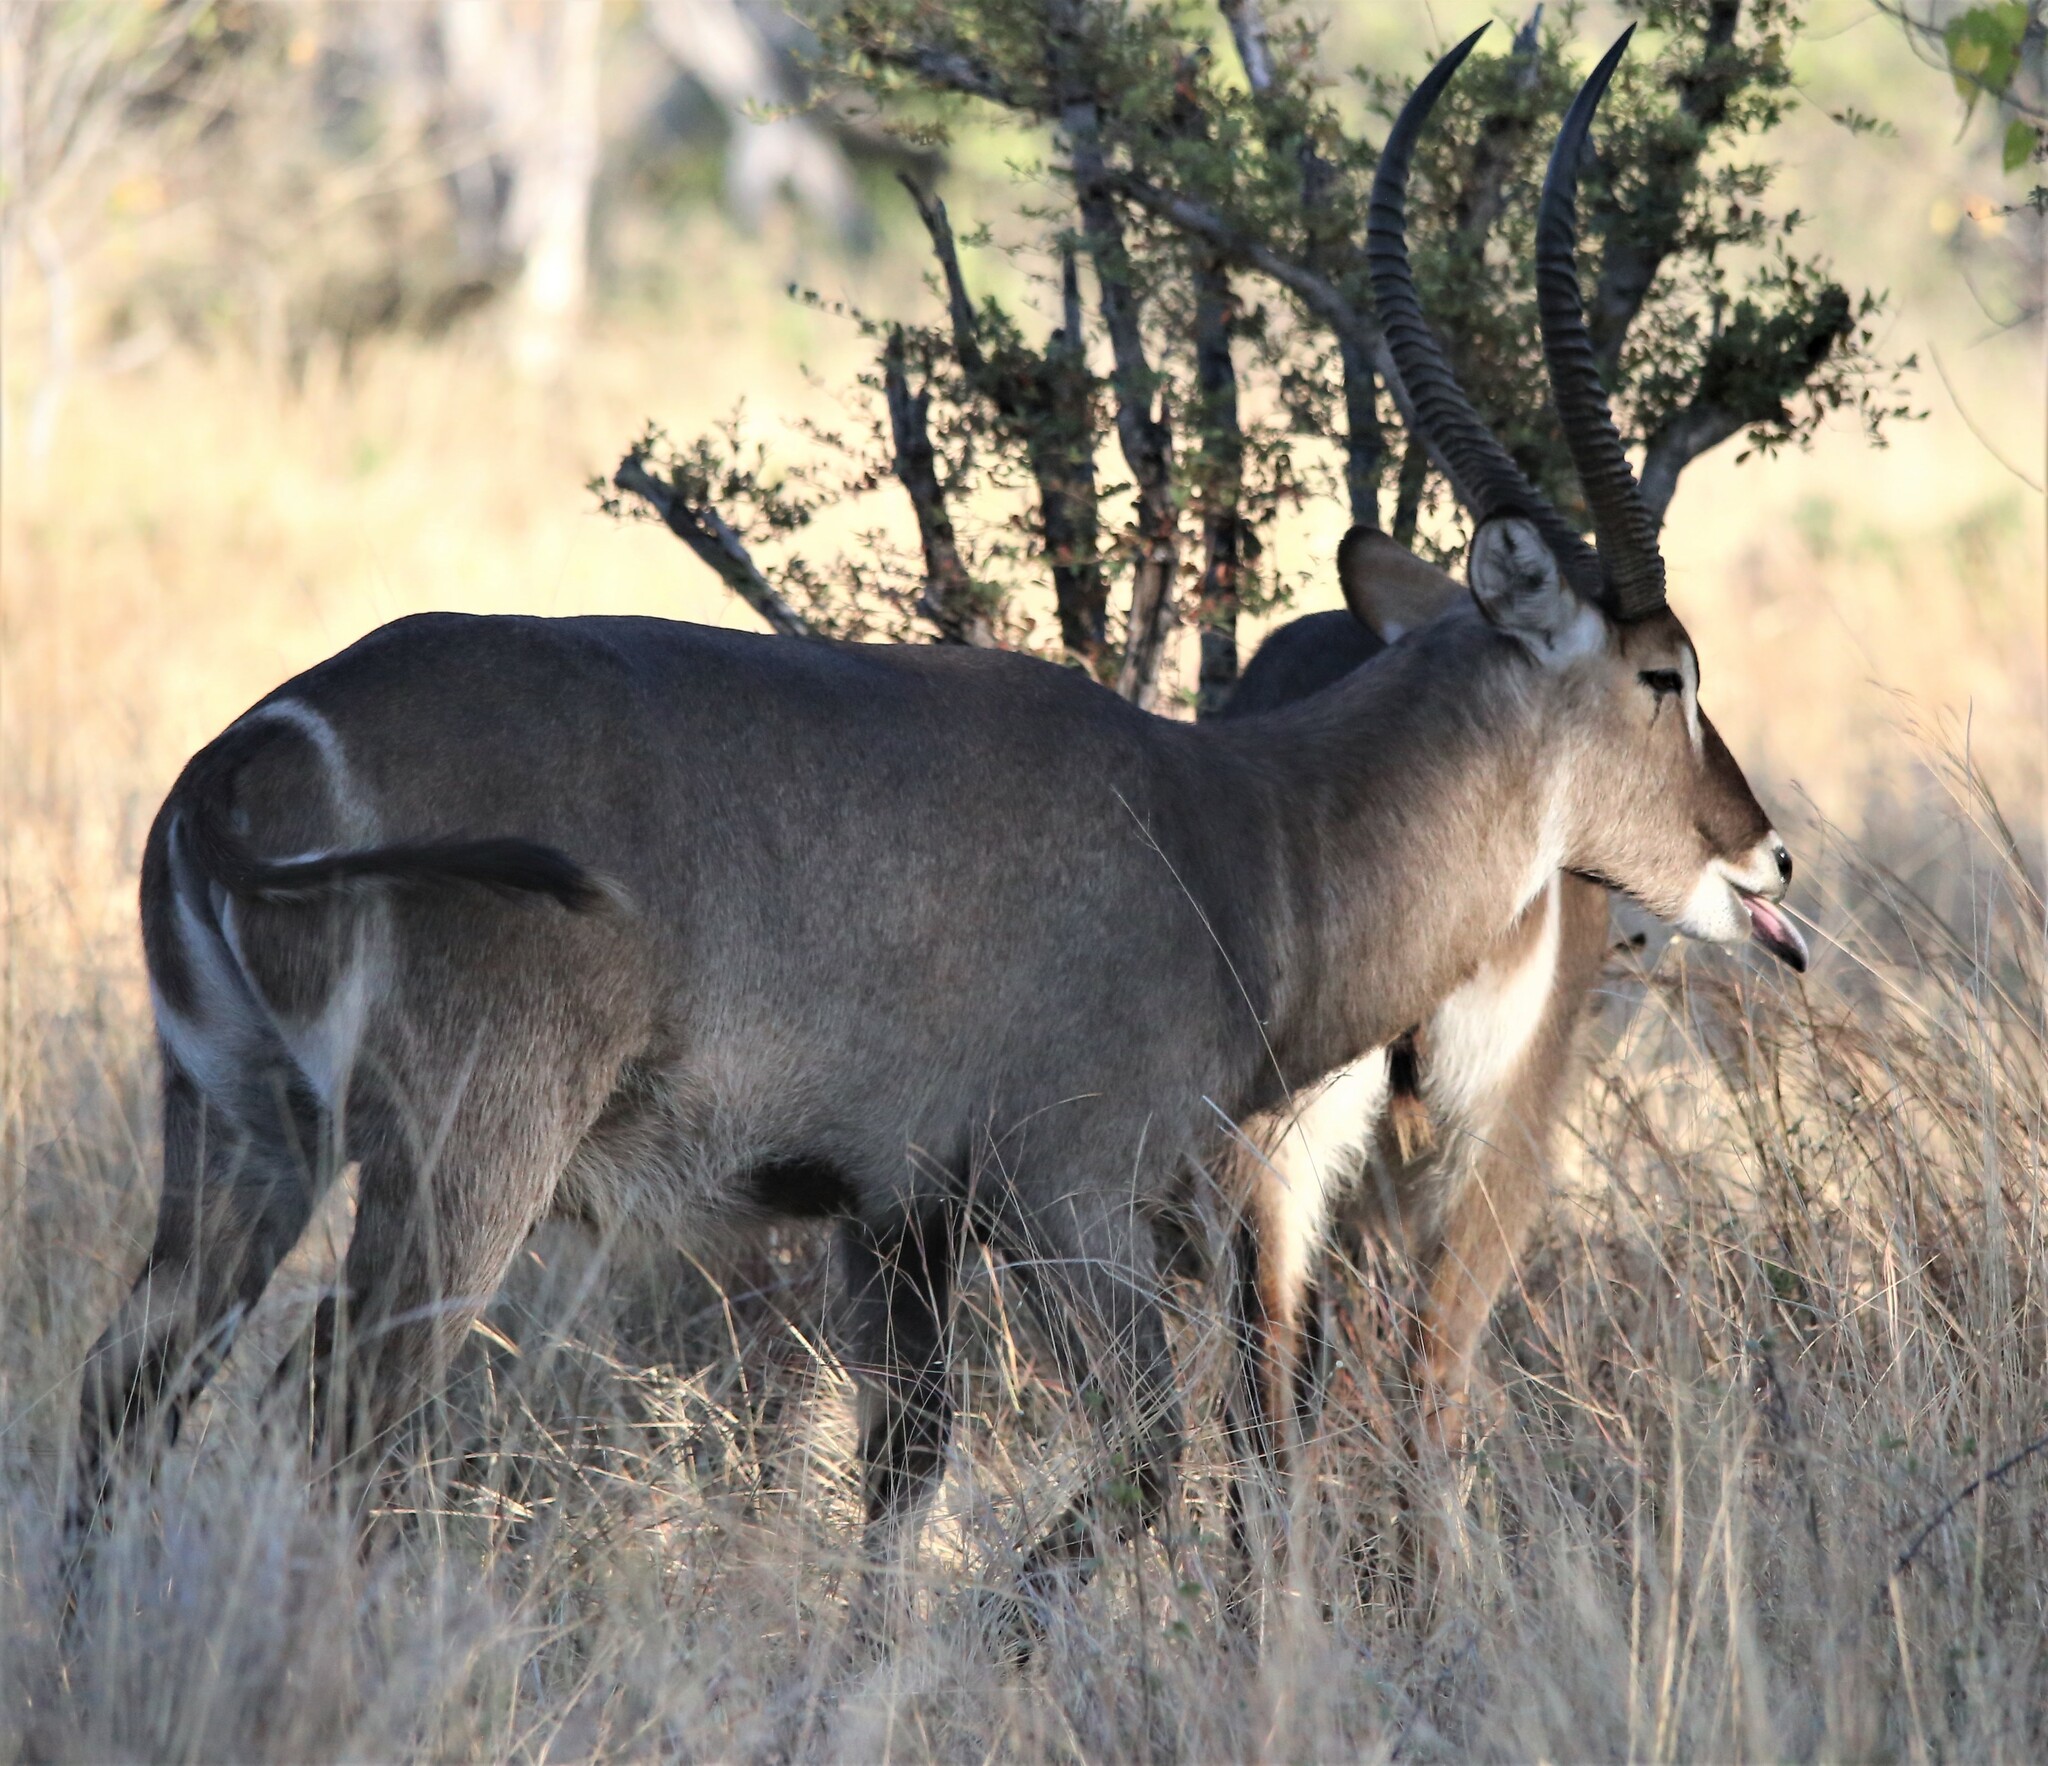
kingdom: Animalia
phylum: Chordata
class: Mammalia
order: Artiodactyla
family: Bovidae
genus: Kobus
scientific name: Kobus ellipsiprymnus
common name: Waterbuck
